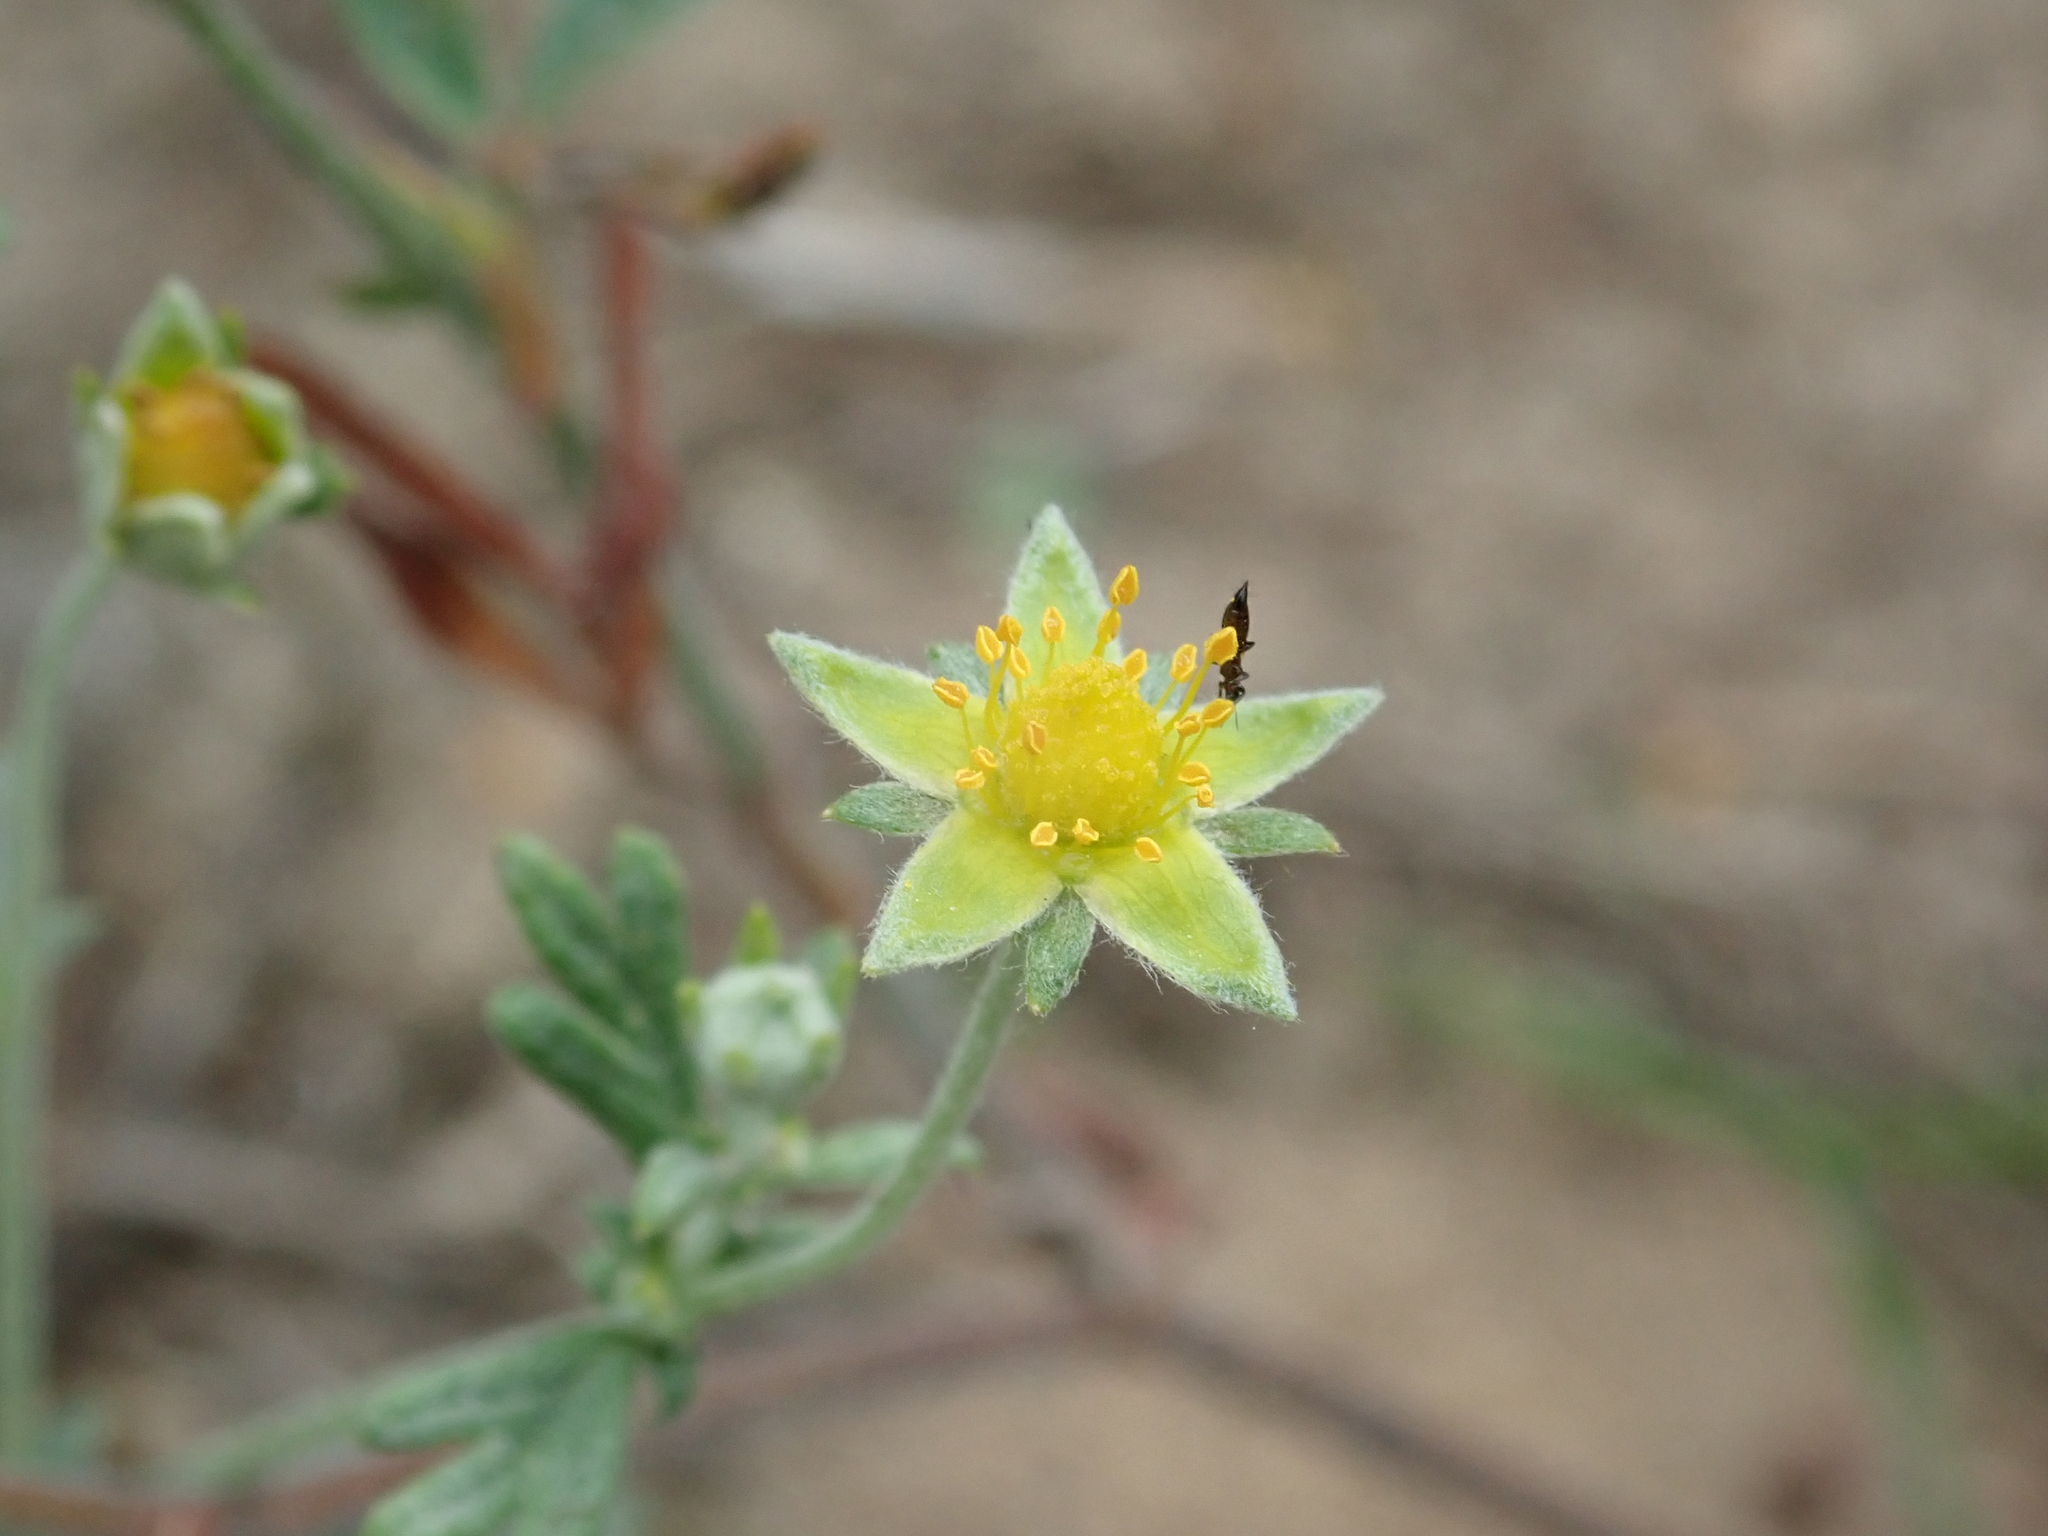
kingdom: Plantae
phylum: Tracheophyta
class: Magnoliopsida
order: Rosales
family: Rosaceae
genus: Potentilla
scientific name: Potentilla argentea
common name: Hoary cinquefoil
